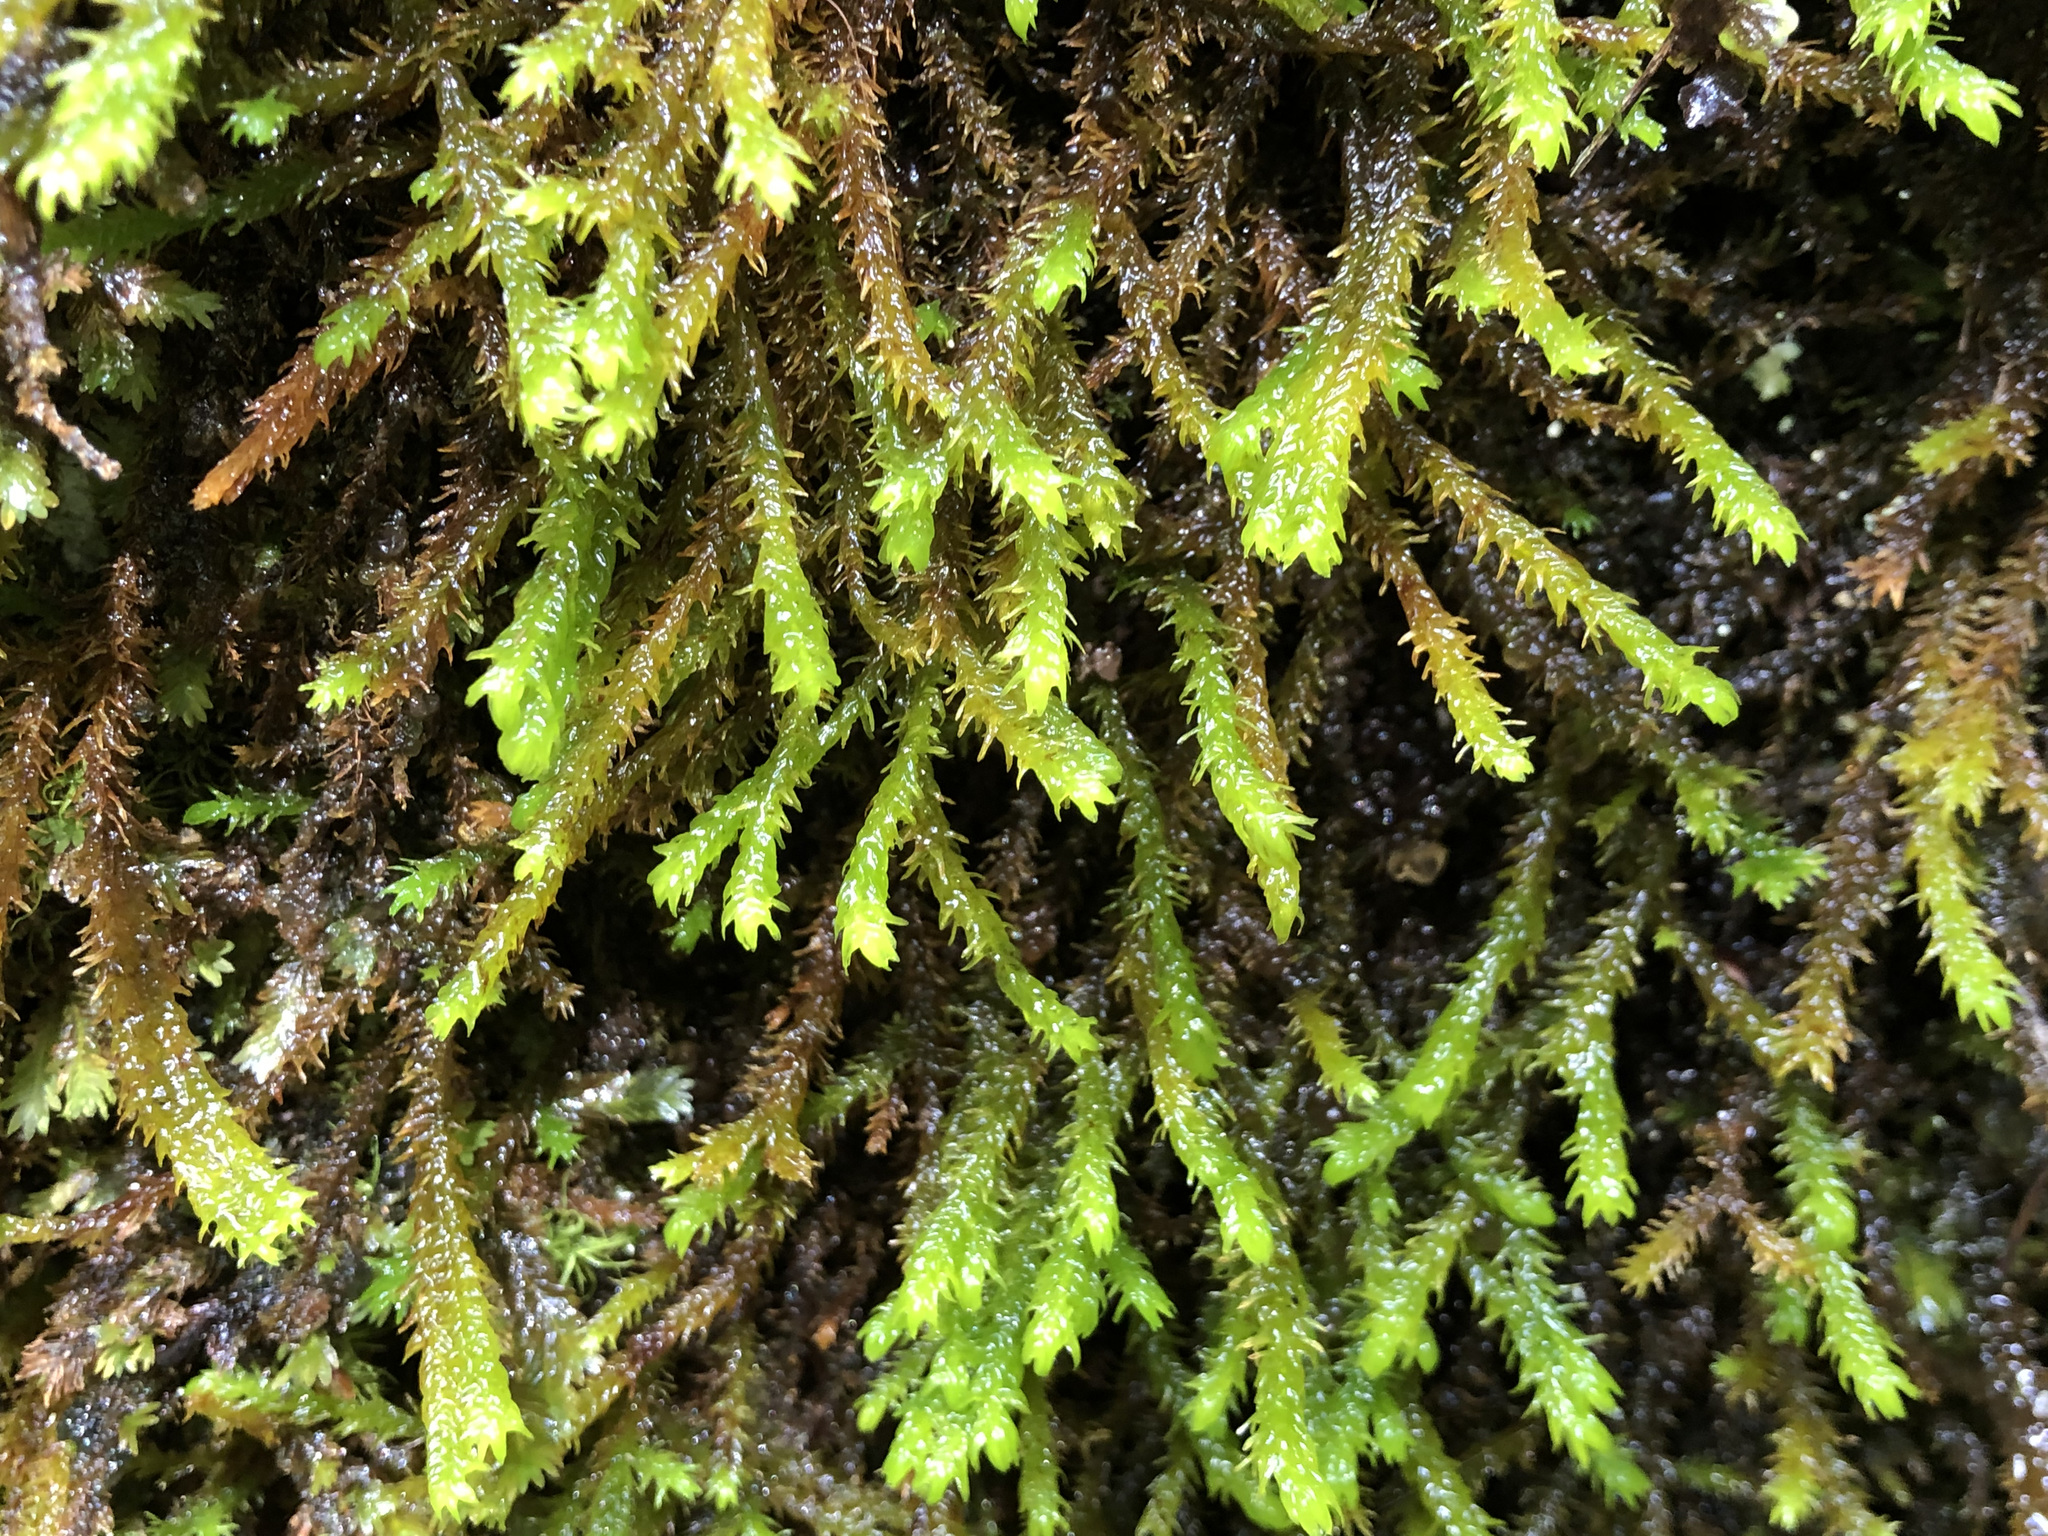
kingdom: Plantae
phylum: Bryophyta
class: Bryopsida
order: Hypnales
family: Anomodontaceae
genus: Anomodon
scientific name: Anomodon viticulosus
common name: Tall anomodon
